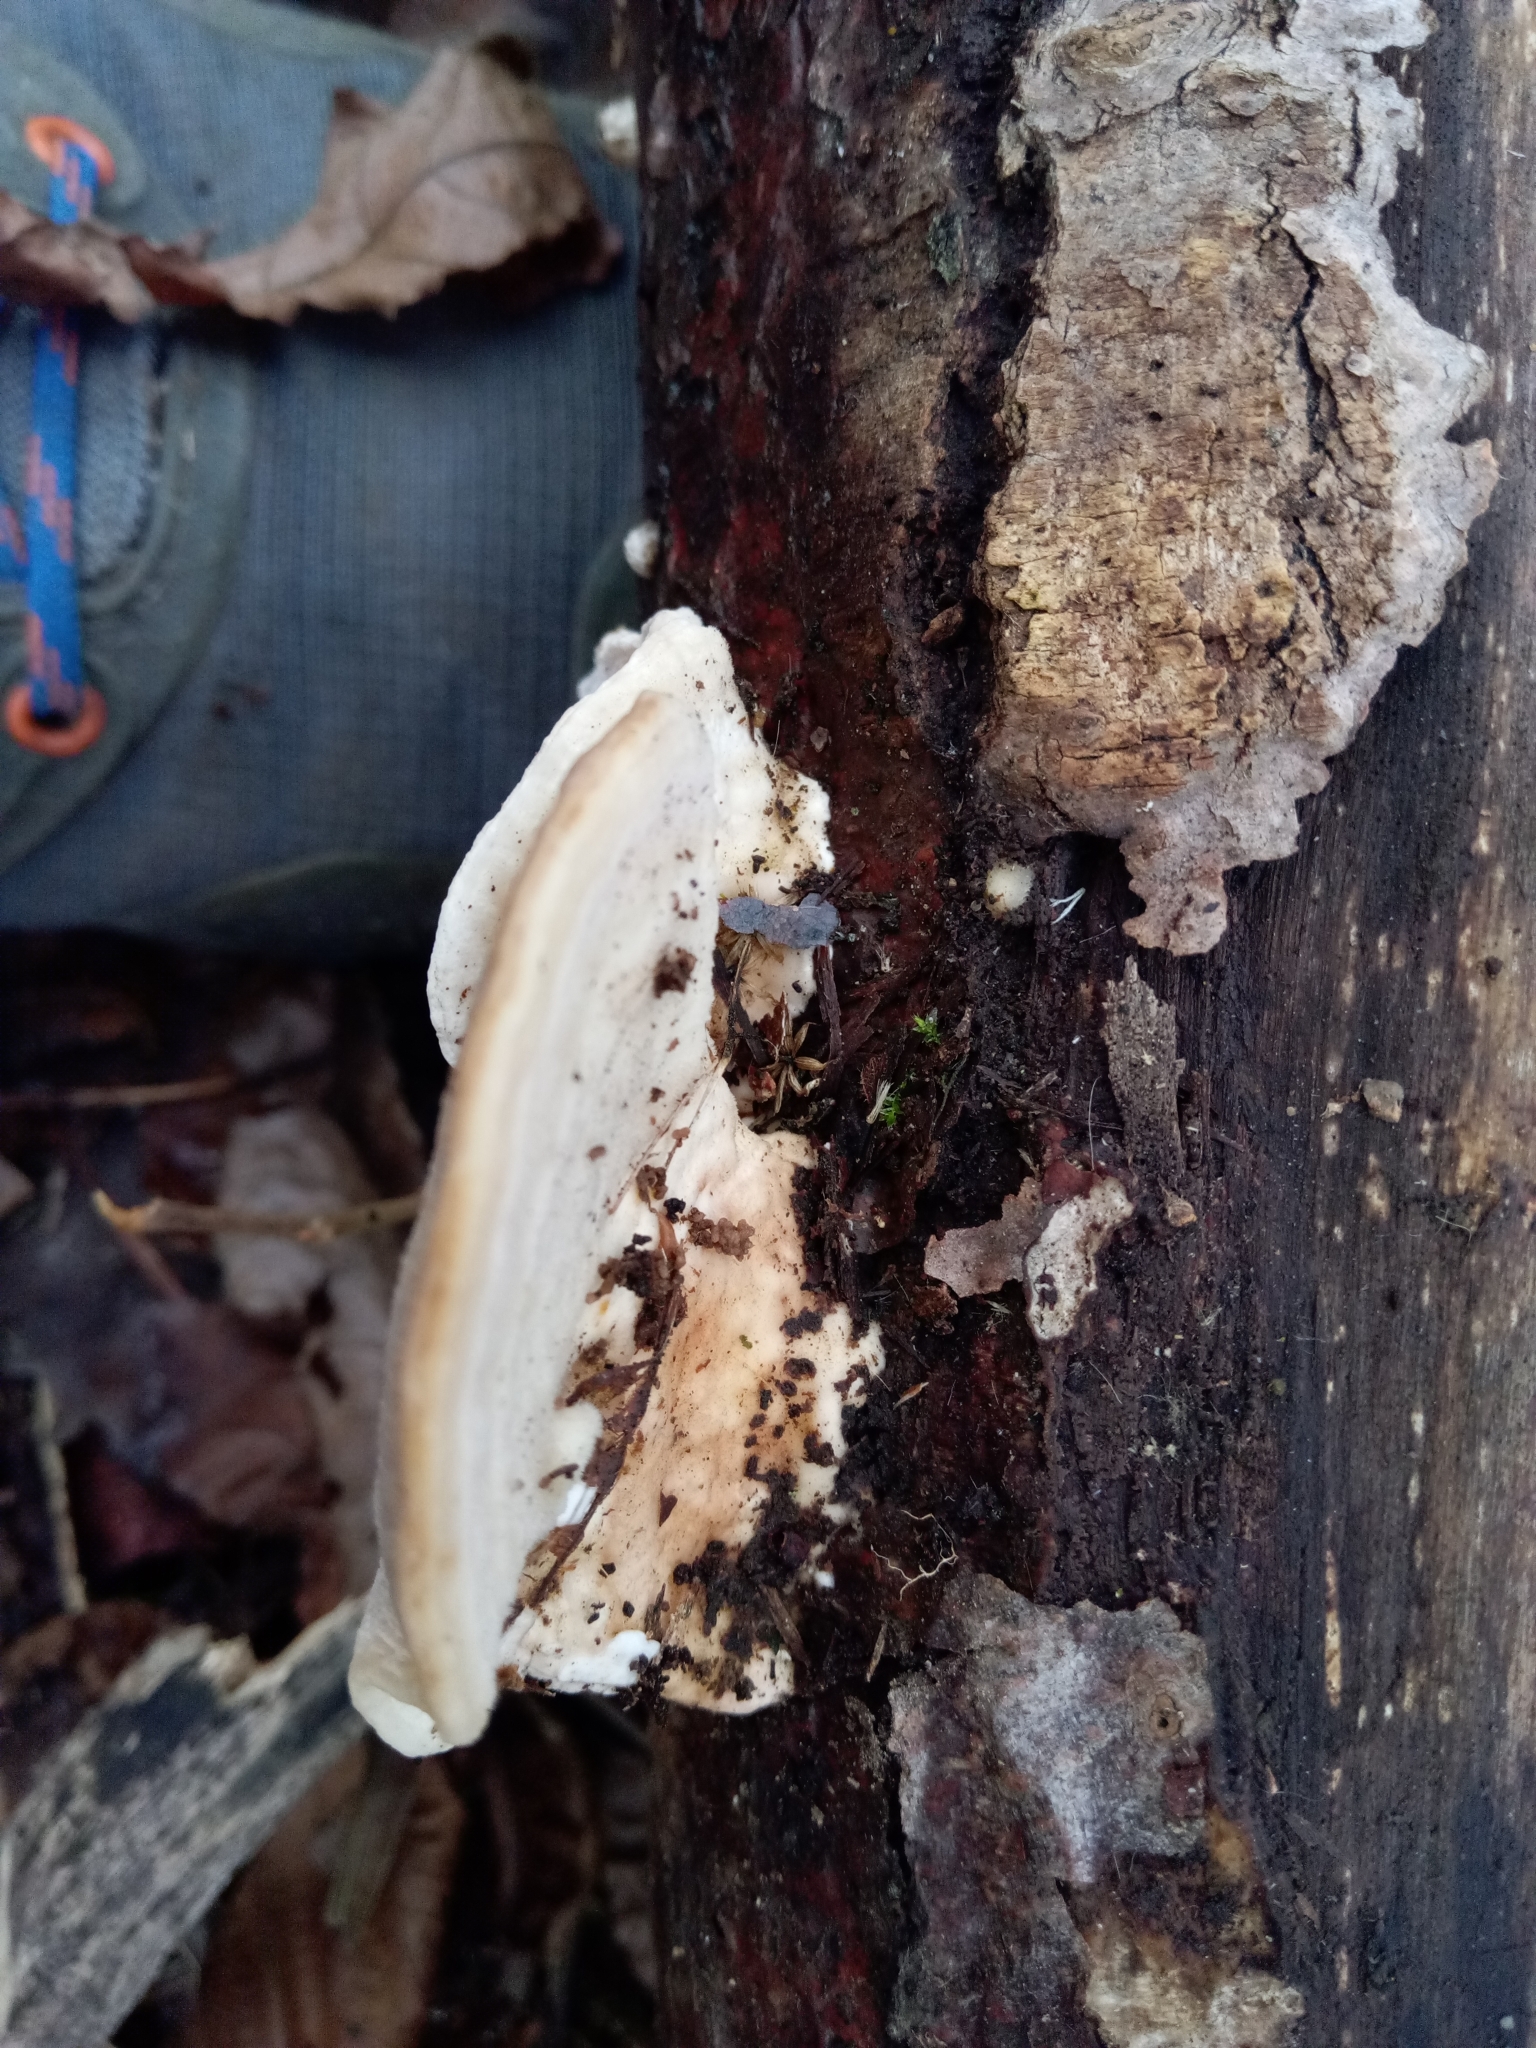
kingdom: Fungi
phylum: Basidiomycota
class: Agaricomycetes
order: Polyporales
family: Polyporaceae
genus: Trametes
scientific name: Trametes gibbosa
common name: Lumpy bracket
